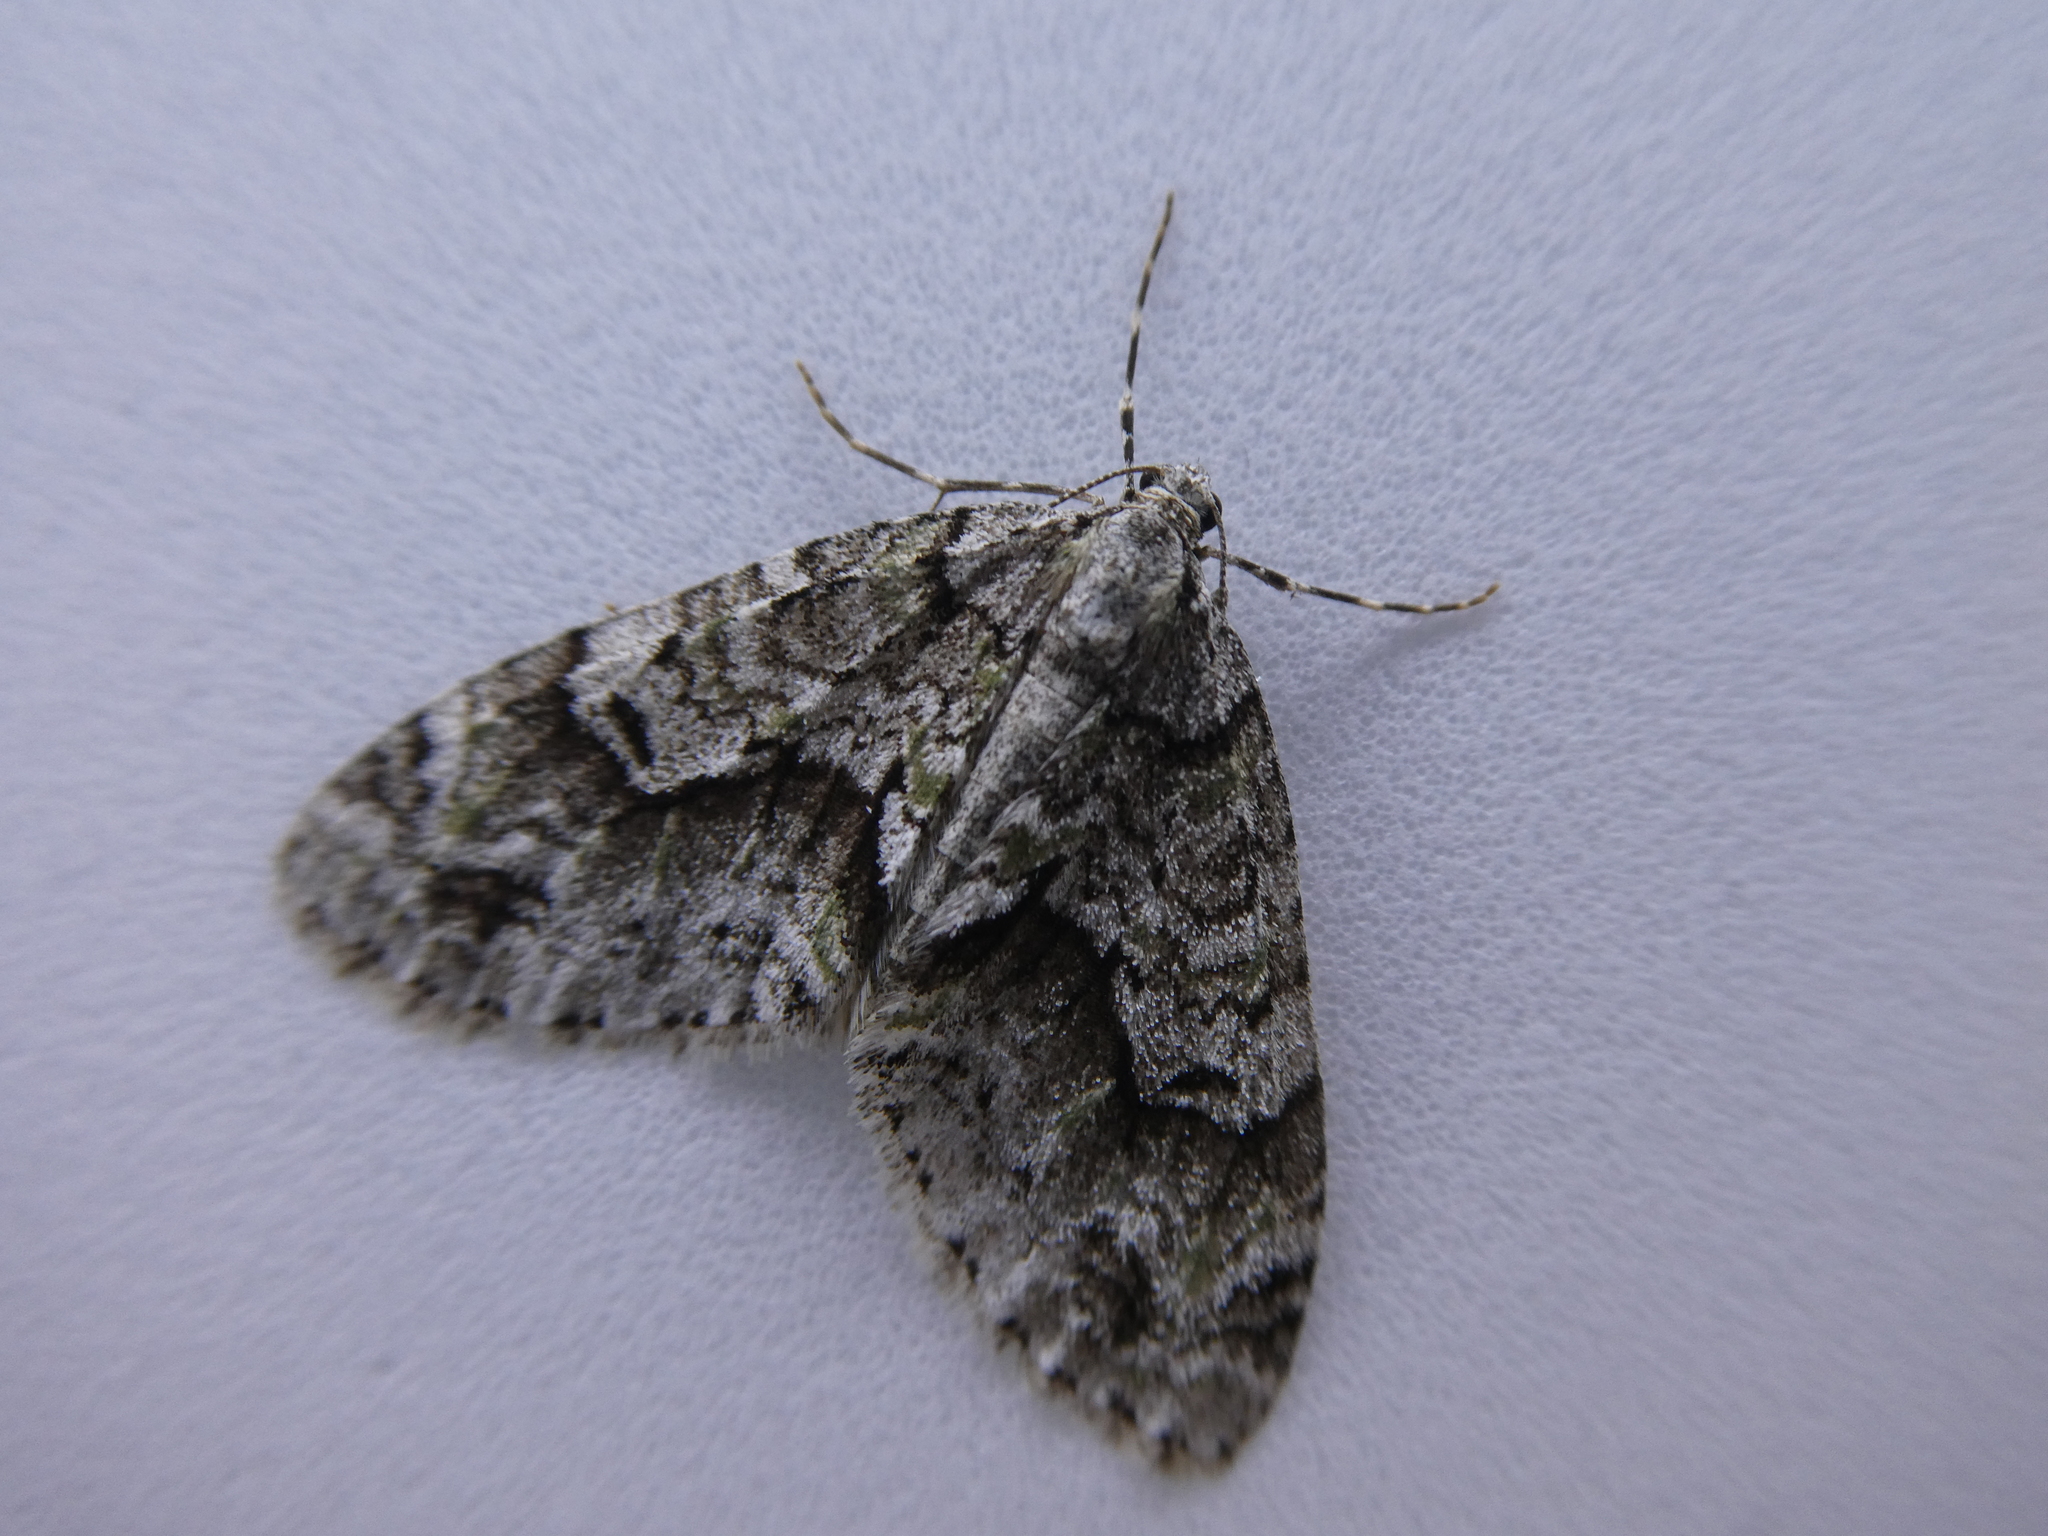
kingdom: Animalia
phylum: Arthropoda
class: Insecta
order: Lepidoptera
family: Geometridae
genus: Cladara
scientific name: Cladara limitaria
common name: Mottled gray carpet
